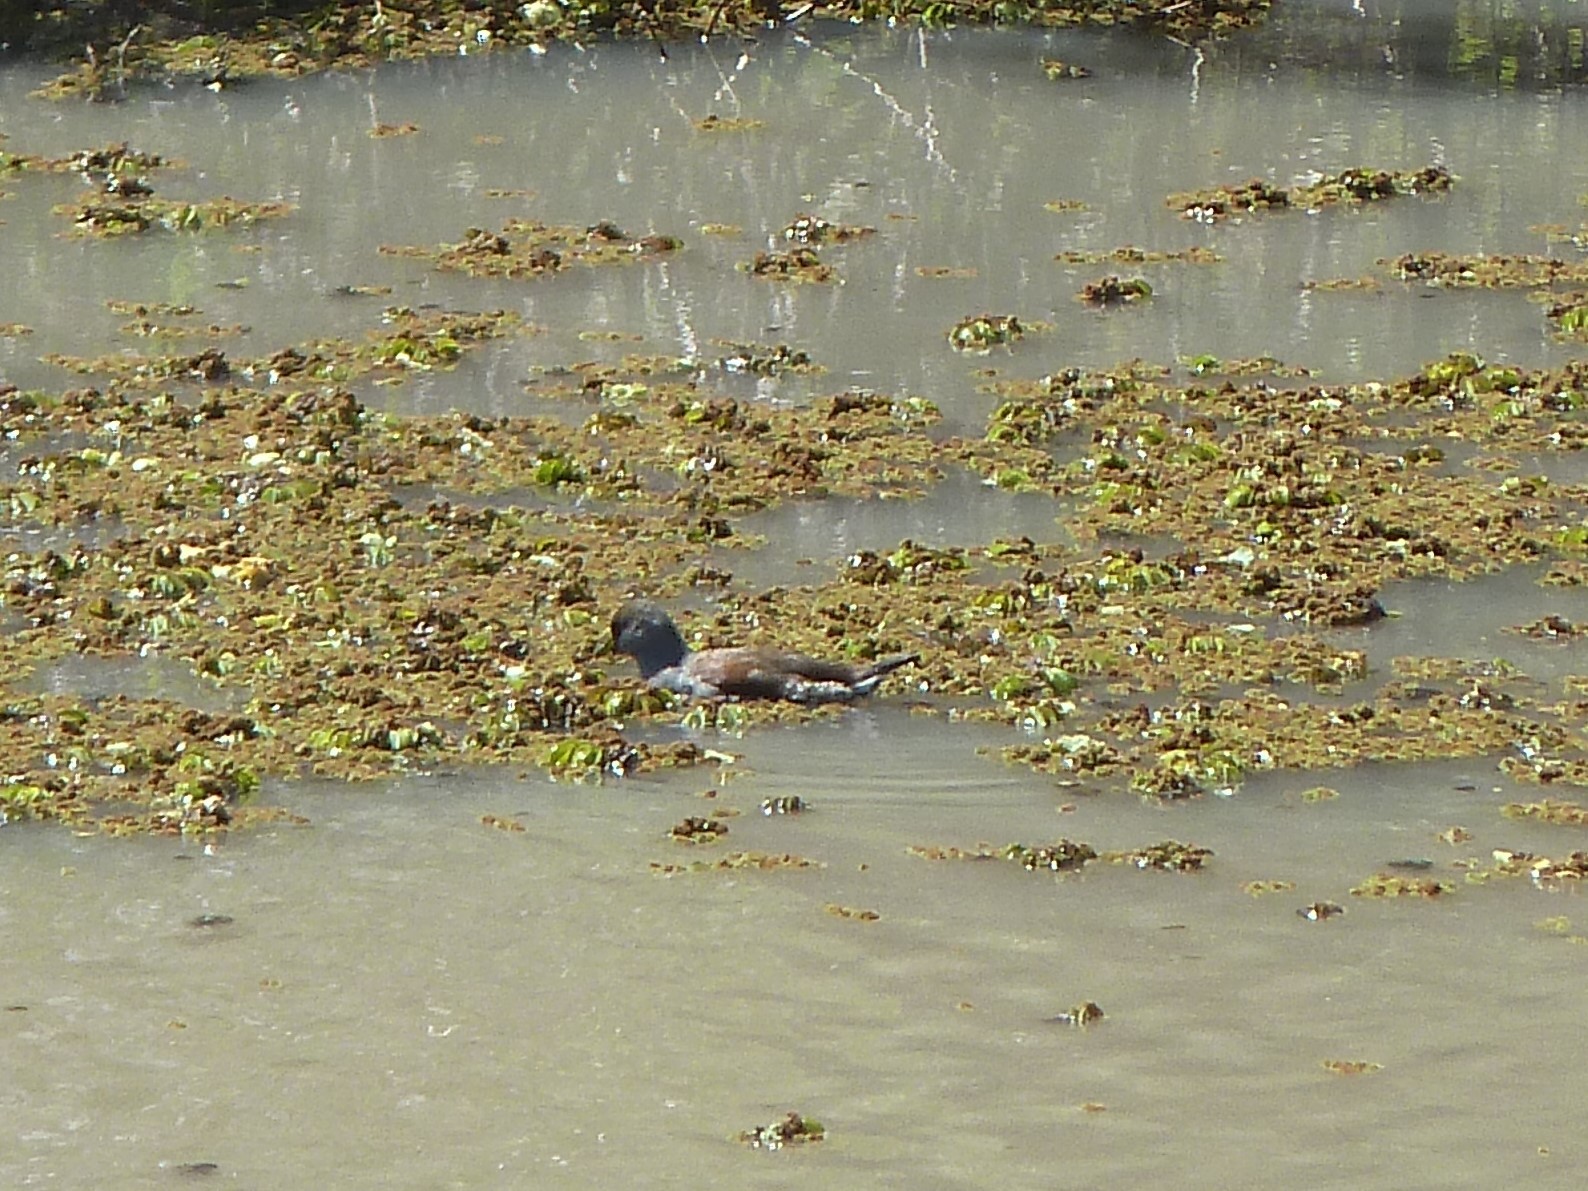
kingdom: Animalia
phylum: Chordata
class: Aves
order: Gruiformes
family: Rallidae
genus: Gallinula
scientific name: Gallinula melanops
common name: Spot-flanked gallinule
